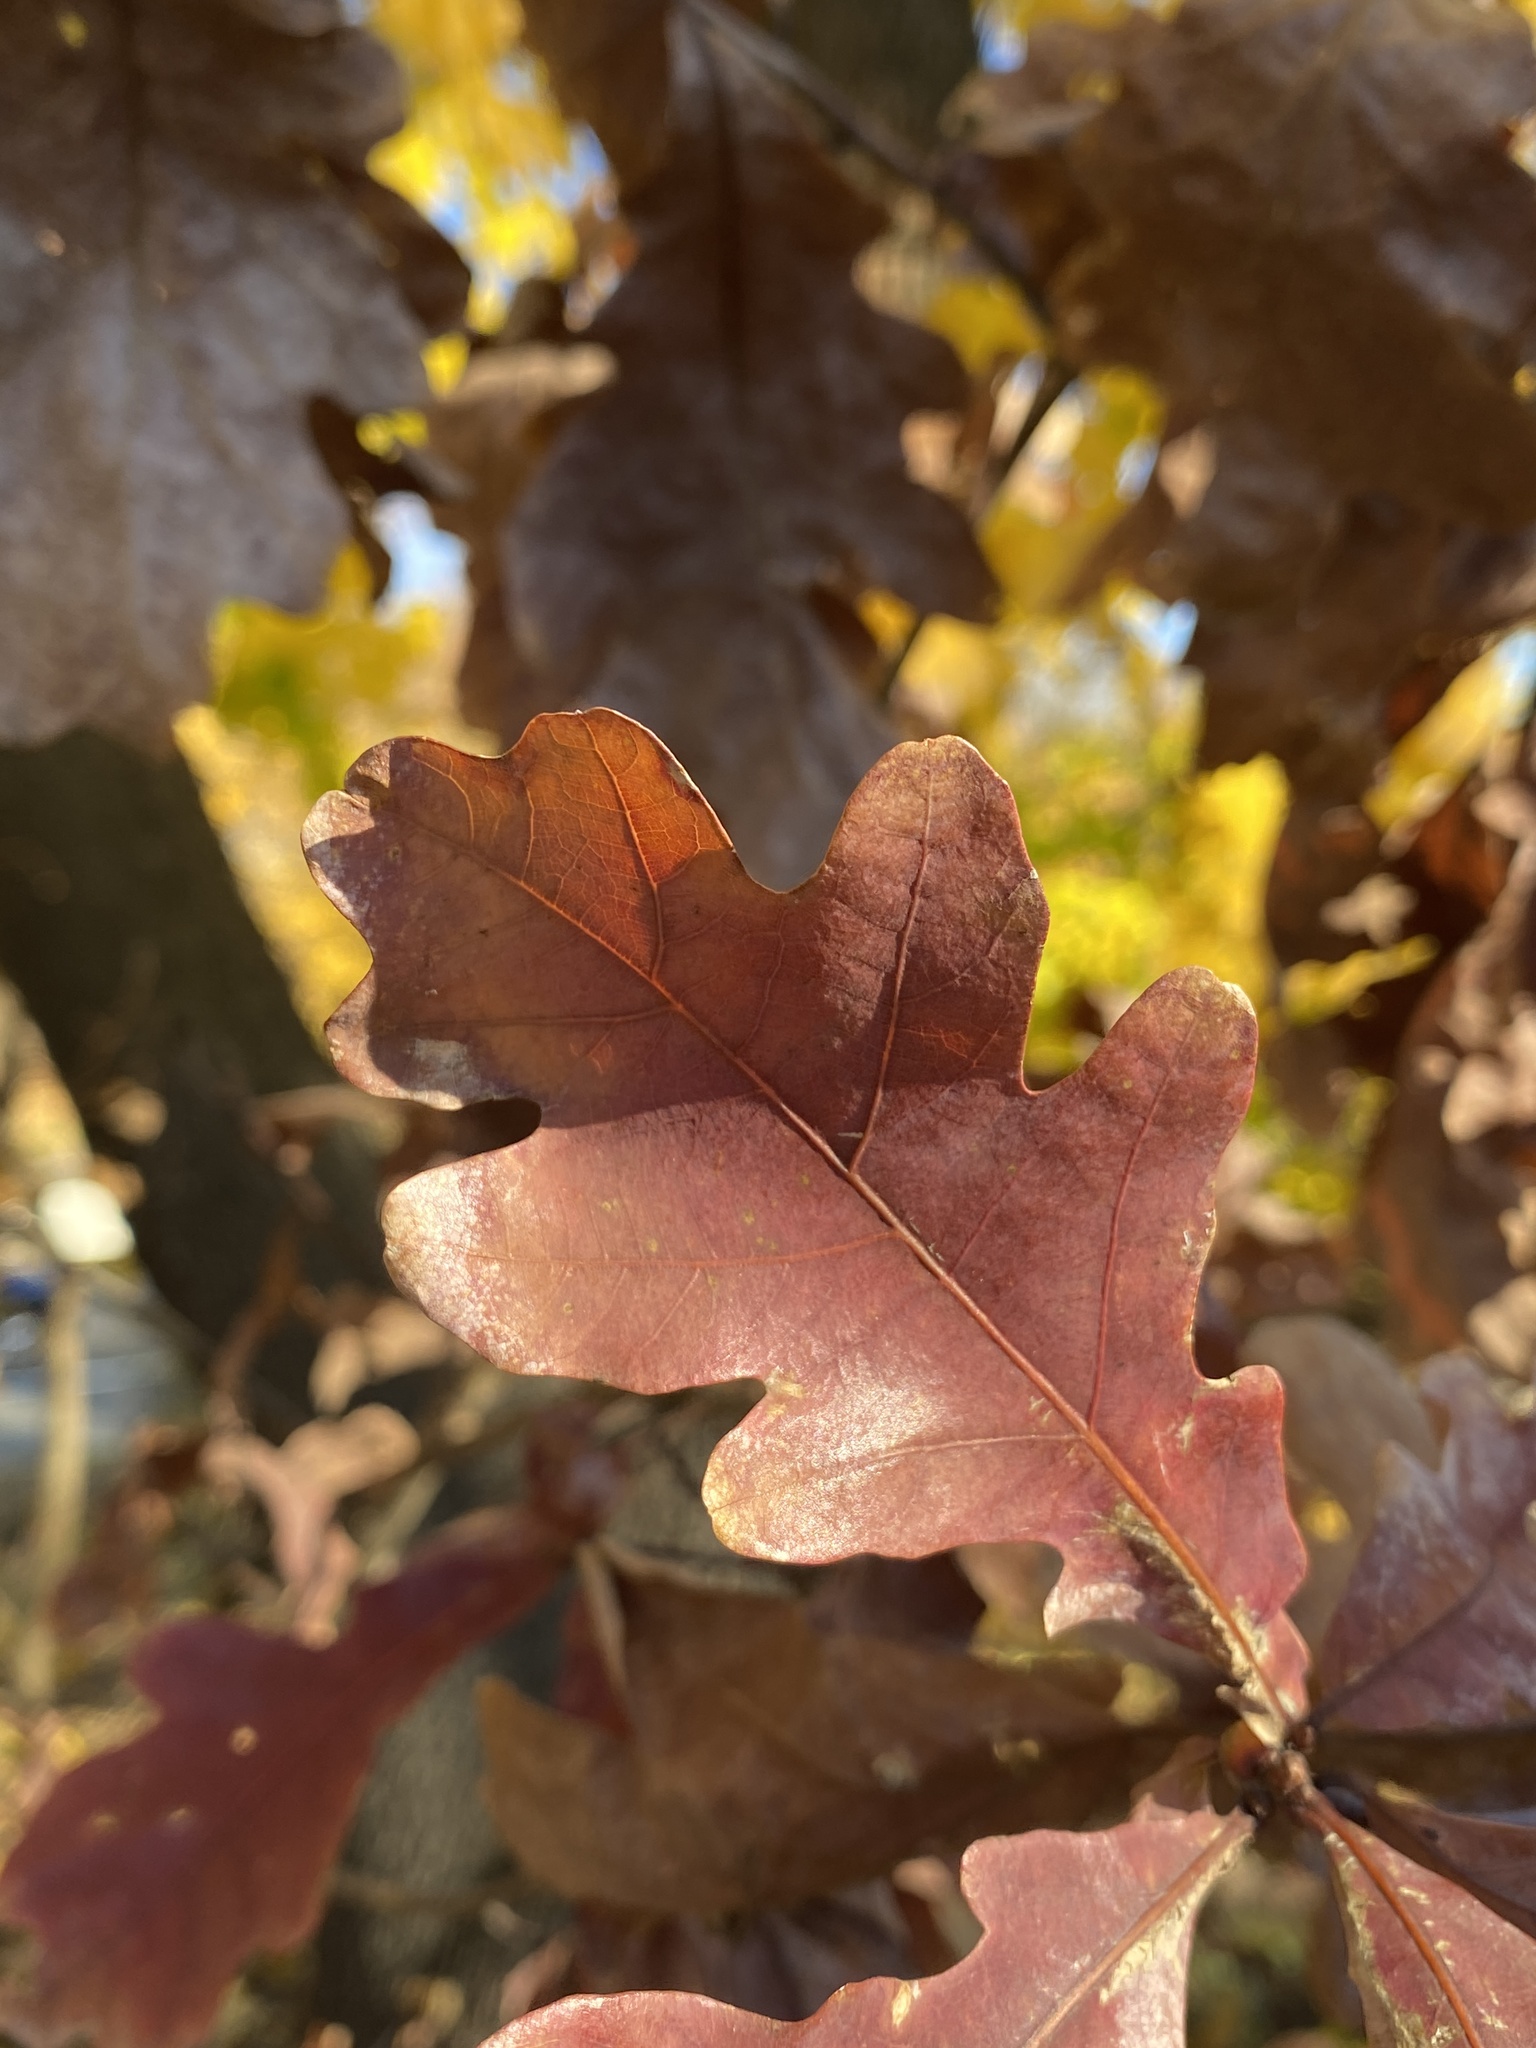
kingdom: Plantae
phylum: Tracheophyta
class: Magnoliopsida
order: Fagales
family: Fagaceae
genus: Quercus
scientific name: Quercus alba
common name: White oak
